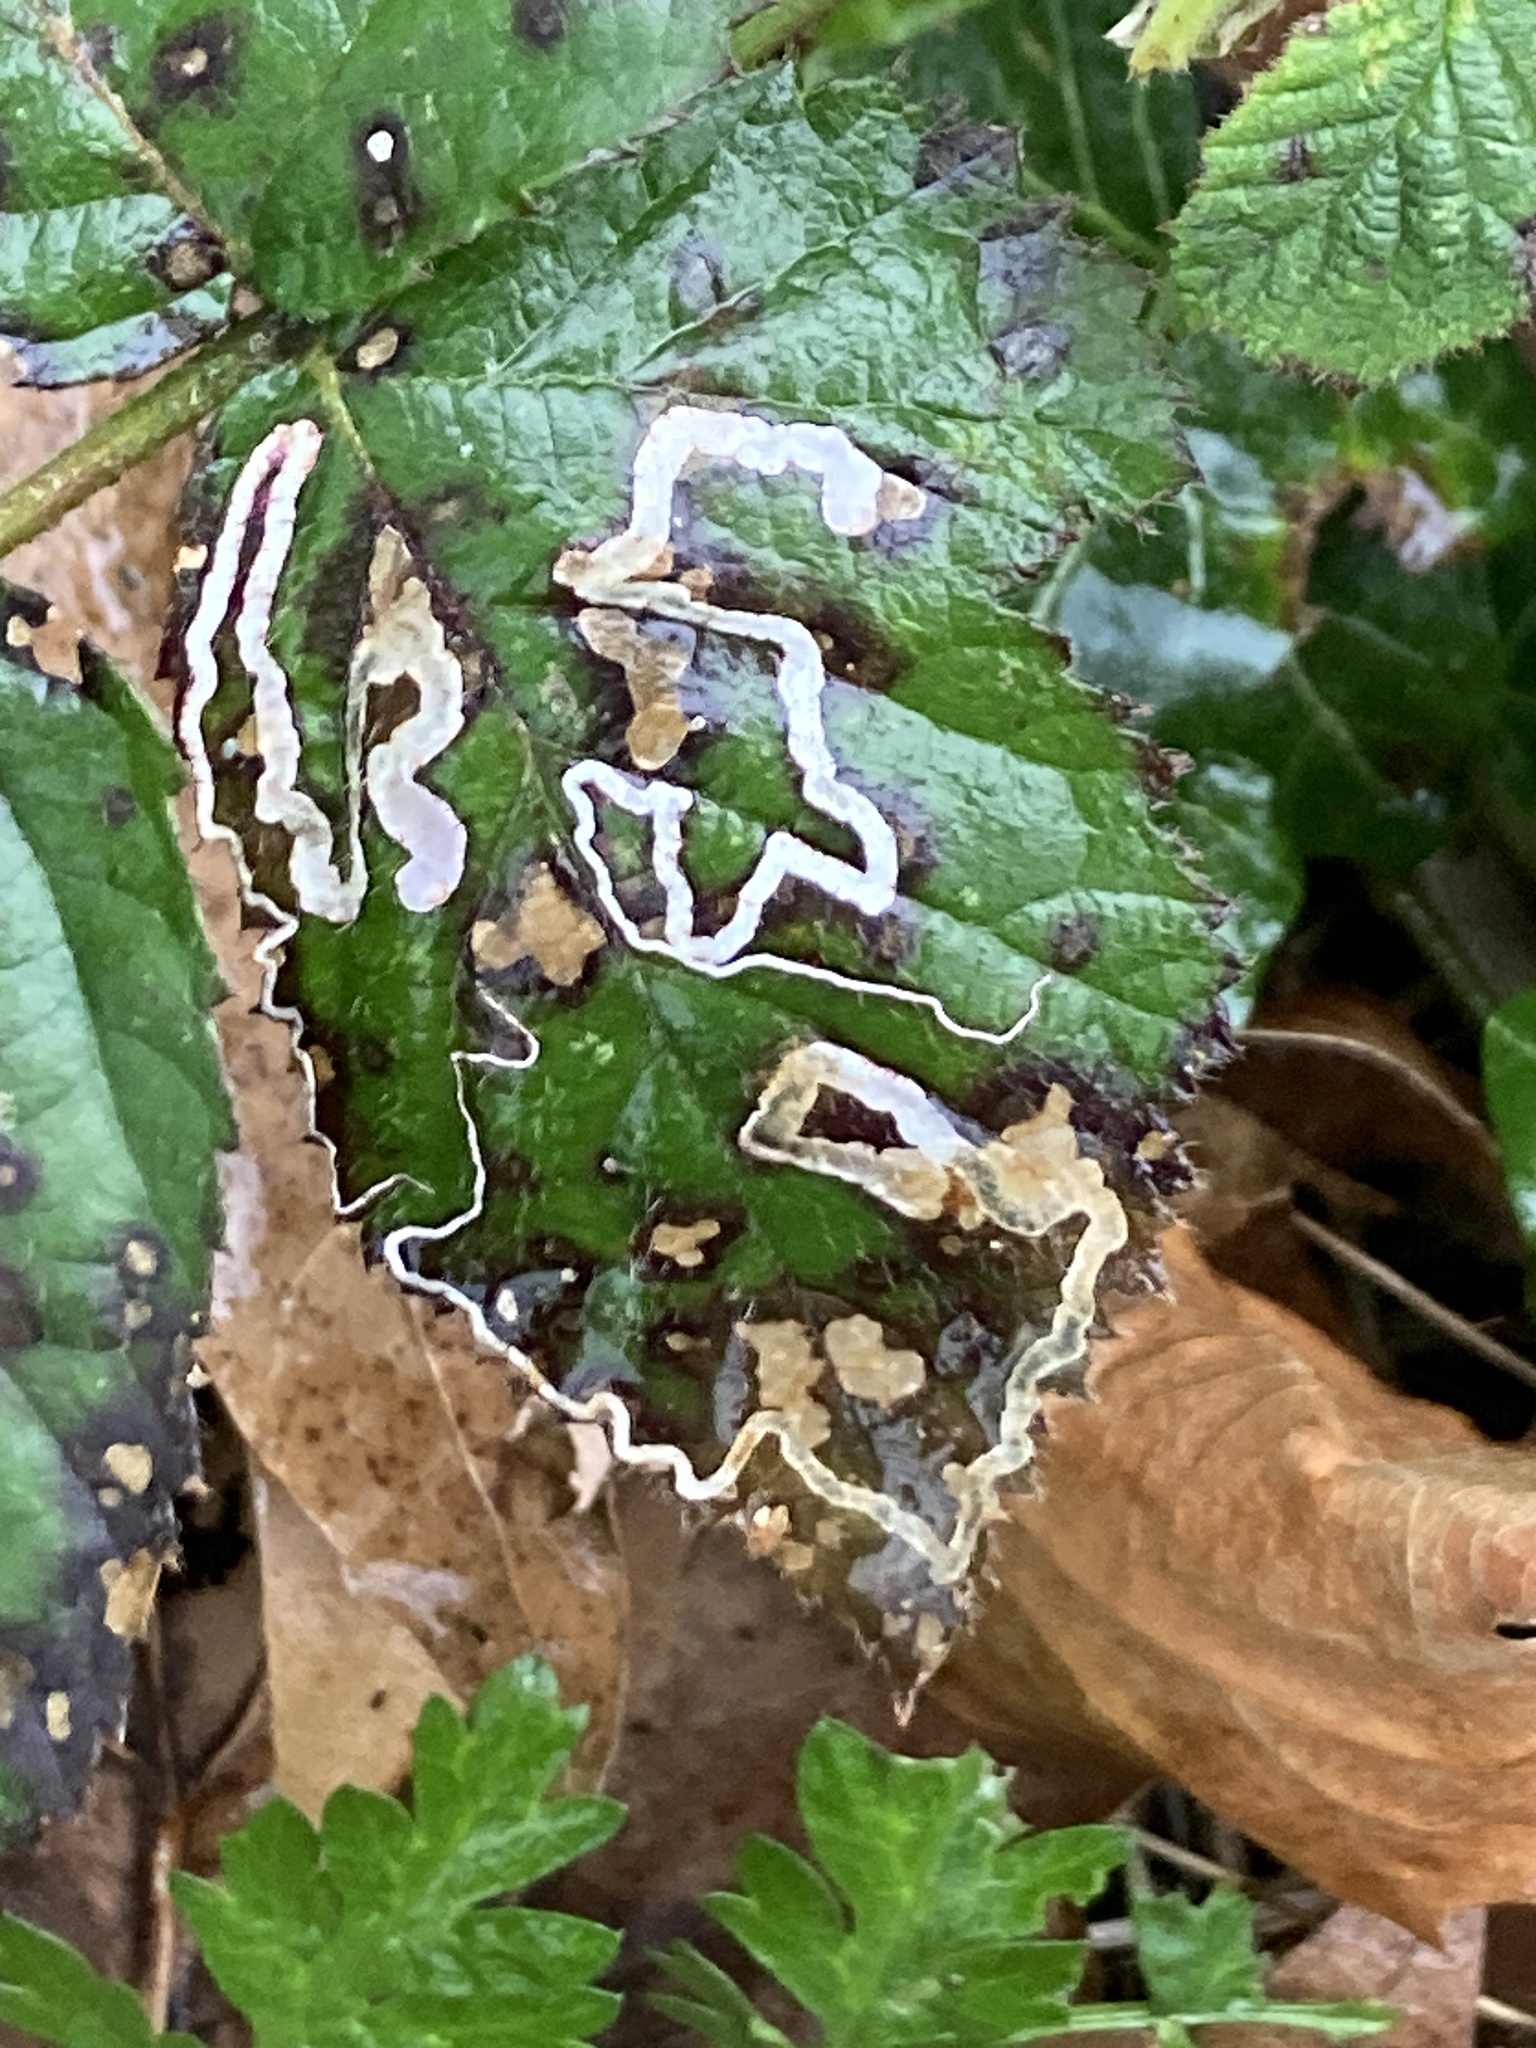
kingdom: Animalia
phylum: Arthropoda
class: Insecta
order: Lepidoptera
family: Nepticulidae
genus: Stigmella
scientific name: Stigmella aurella
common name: Golden pigmy
